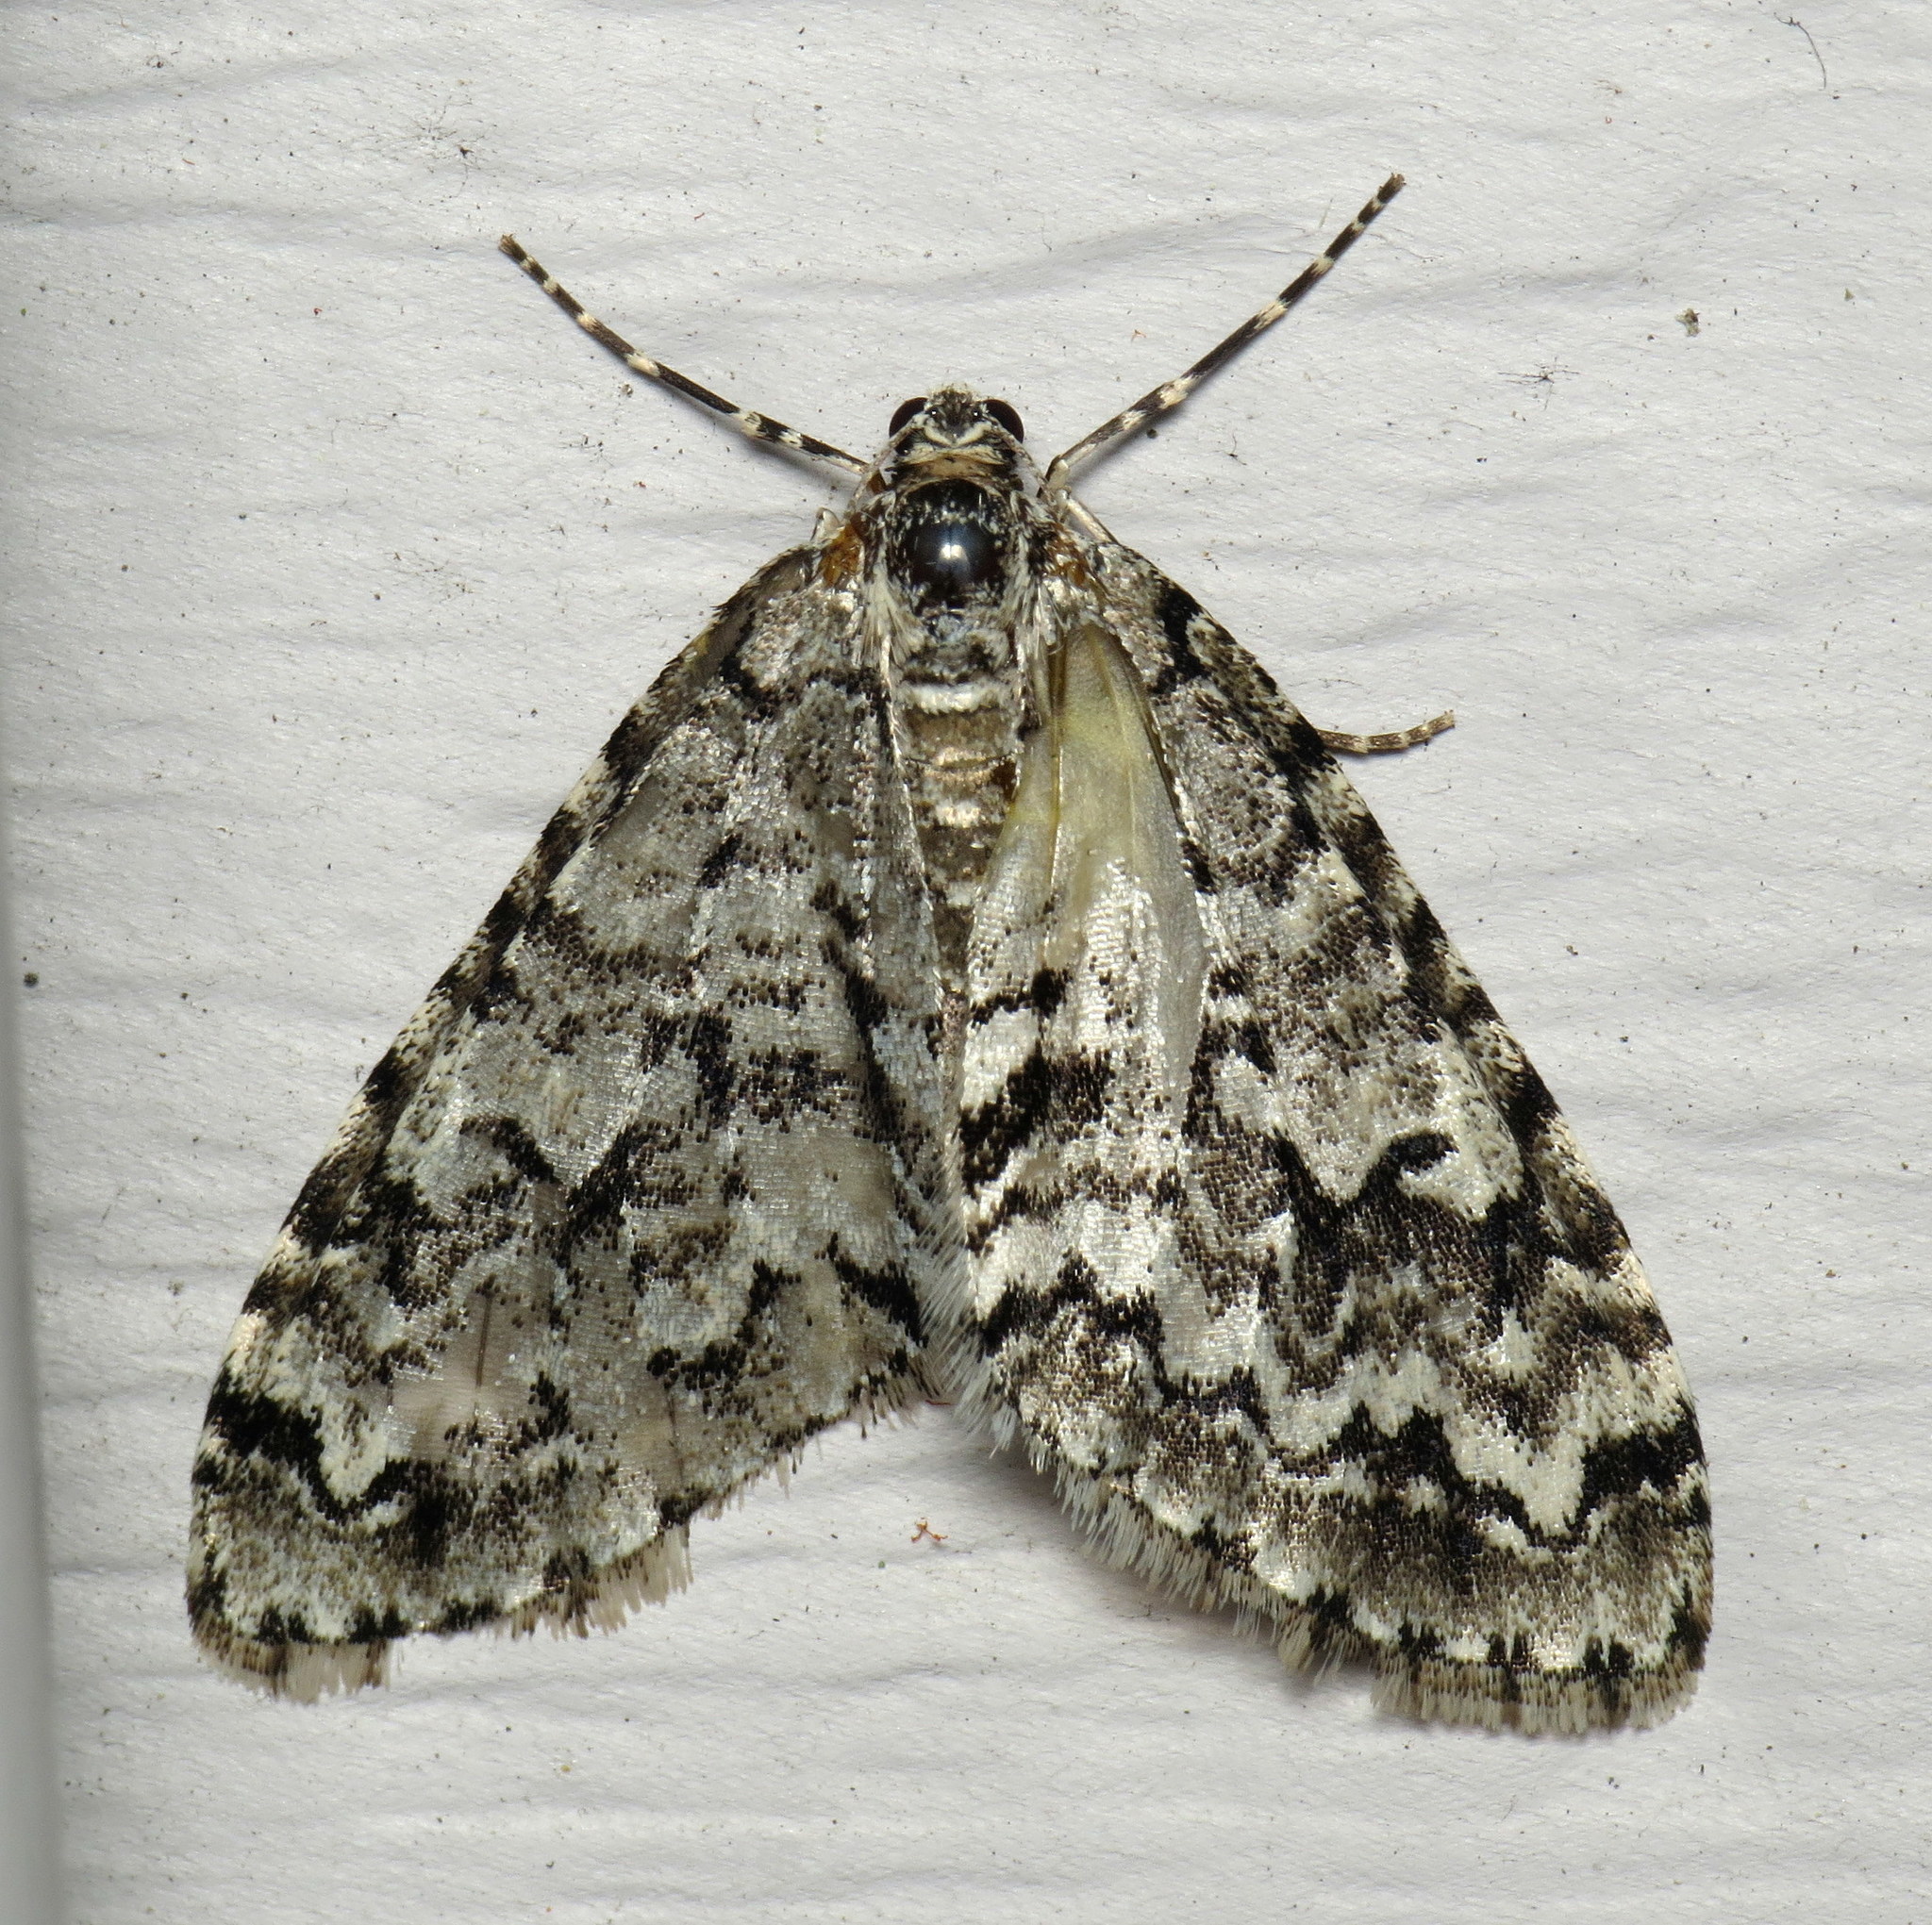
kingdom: Animalia
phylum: Arthropoda
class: Insecta
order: Lepidoptera
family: Geometridae
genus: Cladara
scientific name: Cladara atroliturata
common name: Scribbler
